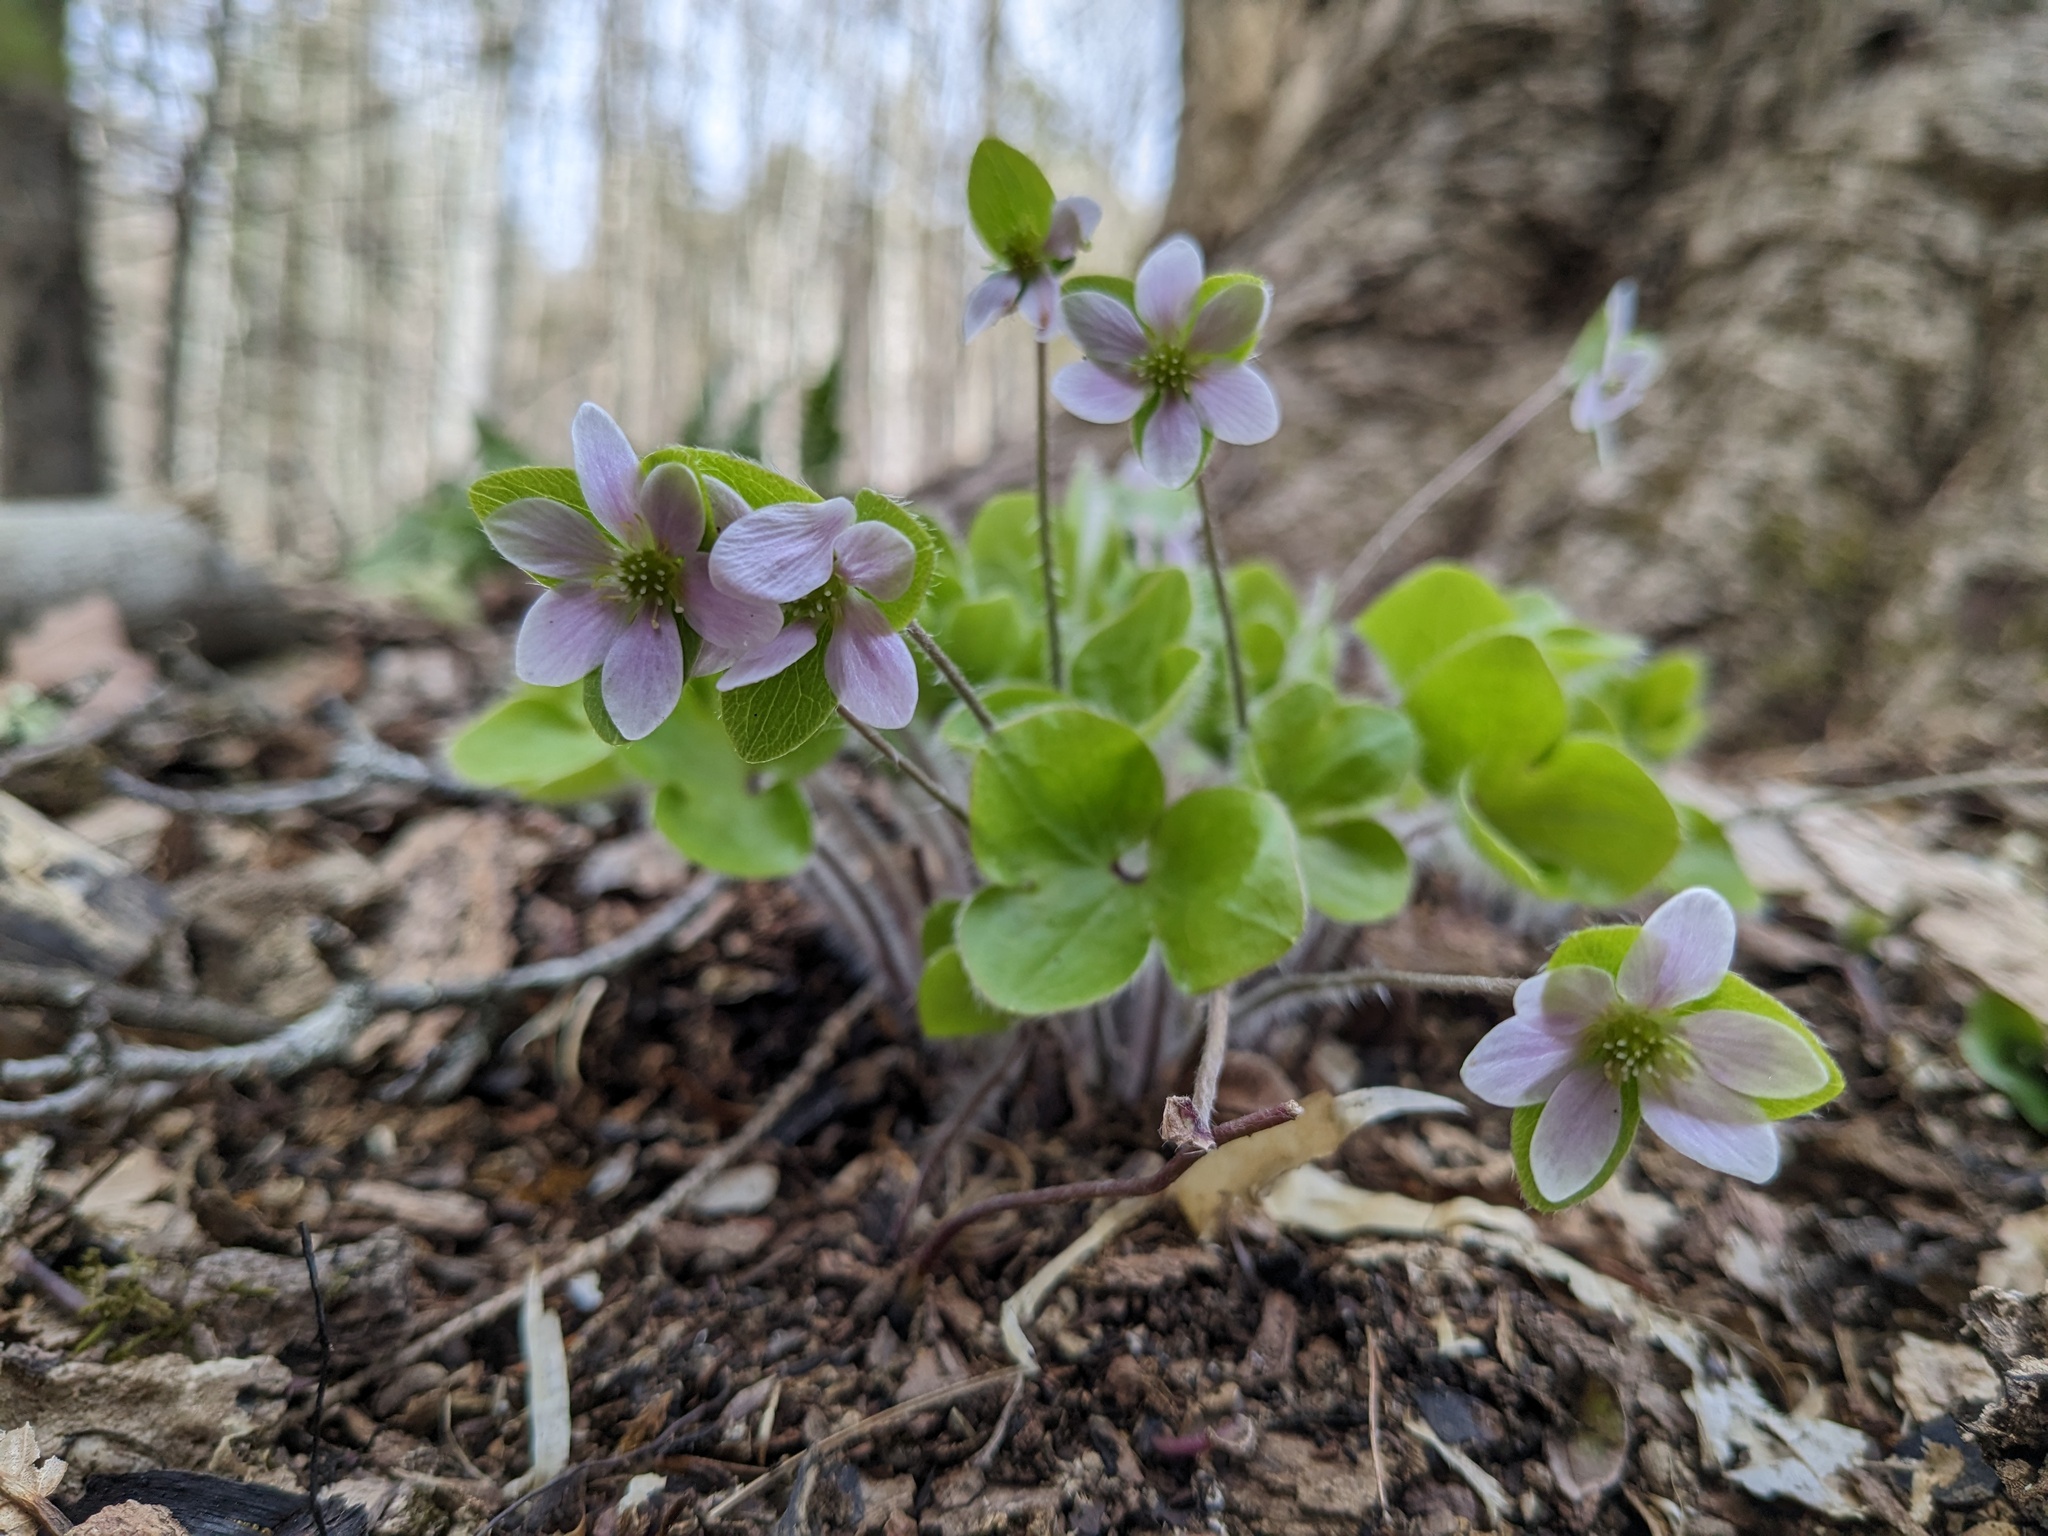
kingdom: Plantae
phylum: Tracheophyta
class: Magnoliopsida
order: Ranunculales
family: Ranunculaceae
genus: Hepatica
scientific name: Hepatica americana
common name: American hepatica
